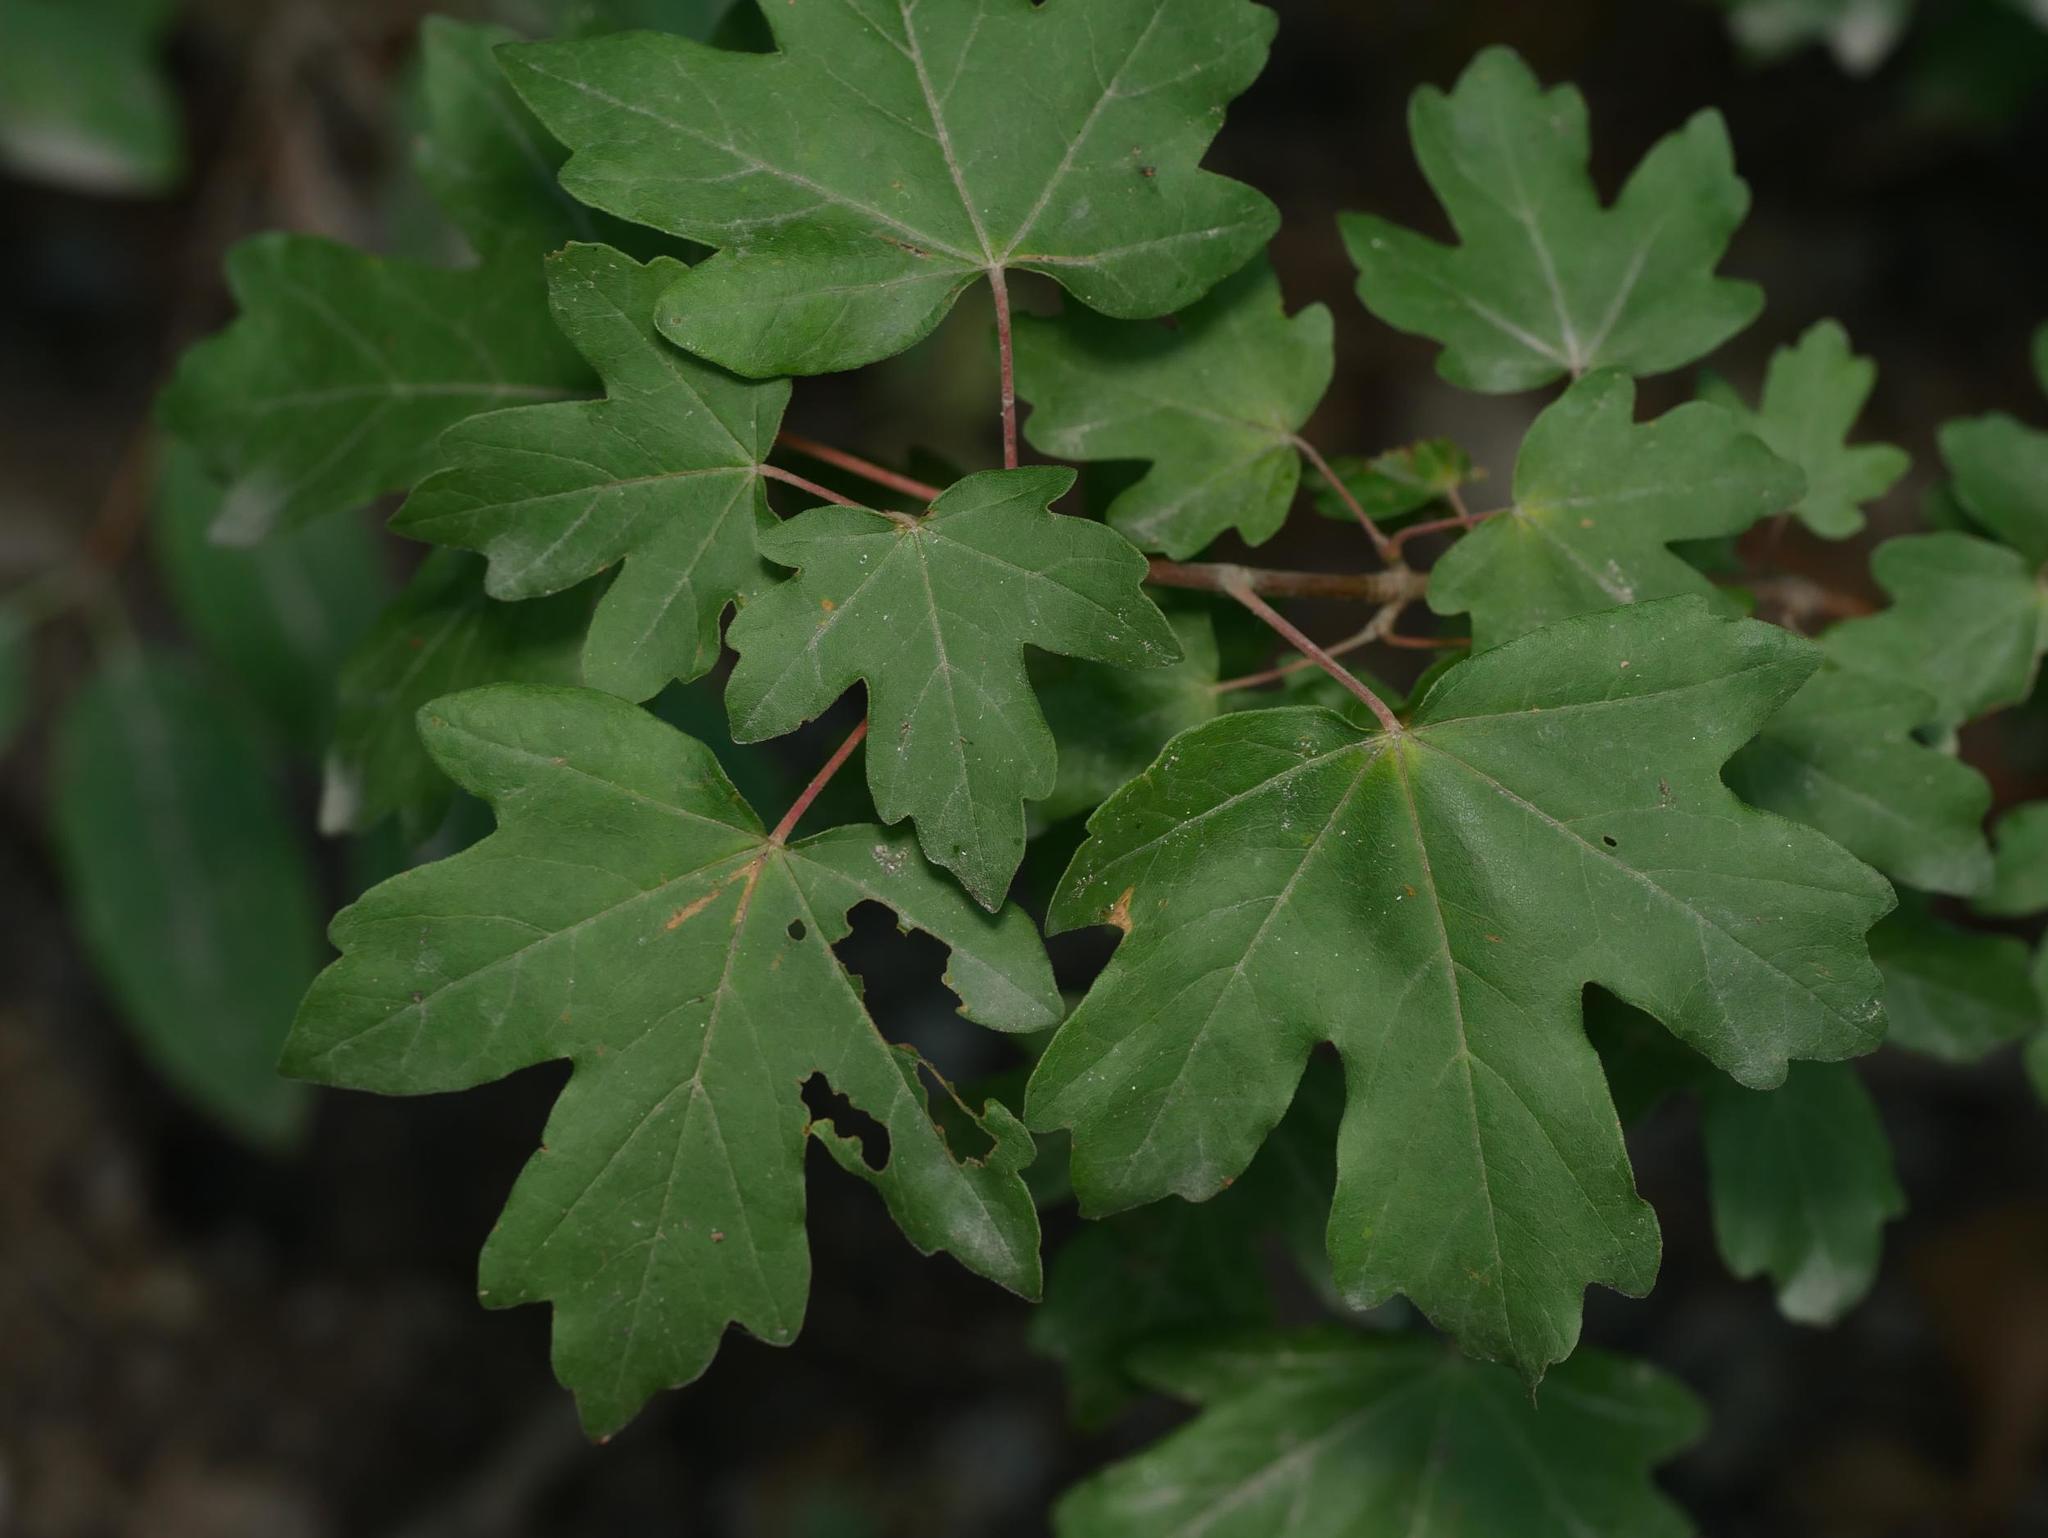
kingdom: Plantae
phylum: Tracheophyta
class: Magnoliopsida
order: Sapindales
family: Sapindaceae
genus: Acer
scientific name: Acer campestre
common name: Field maple
